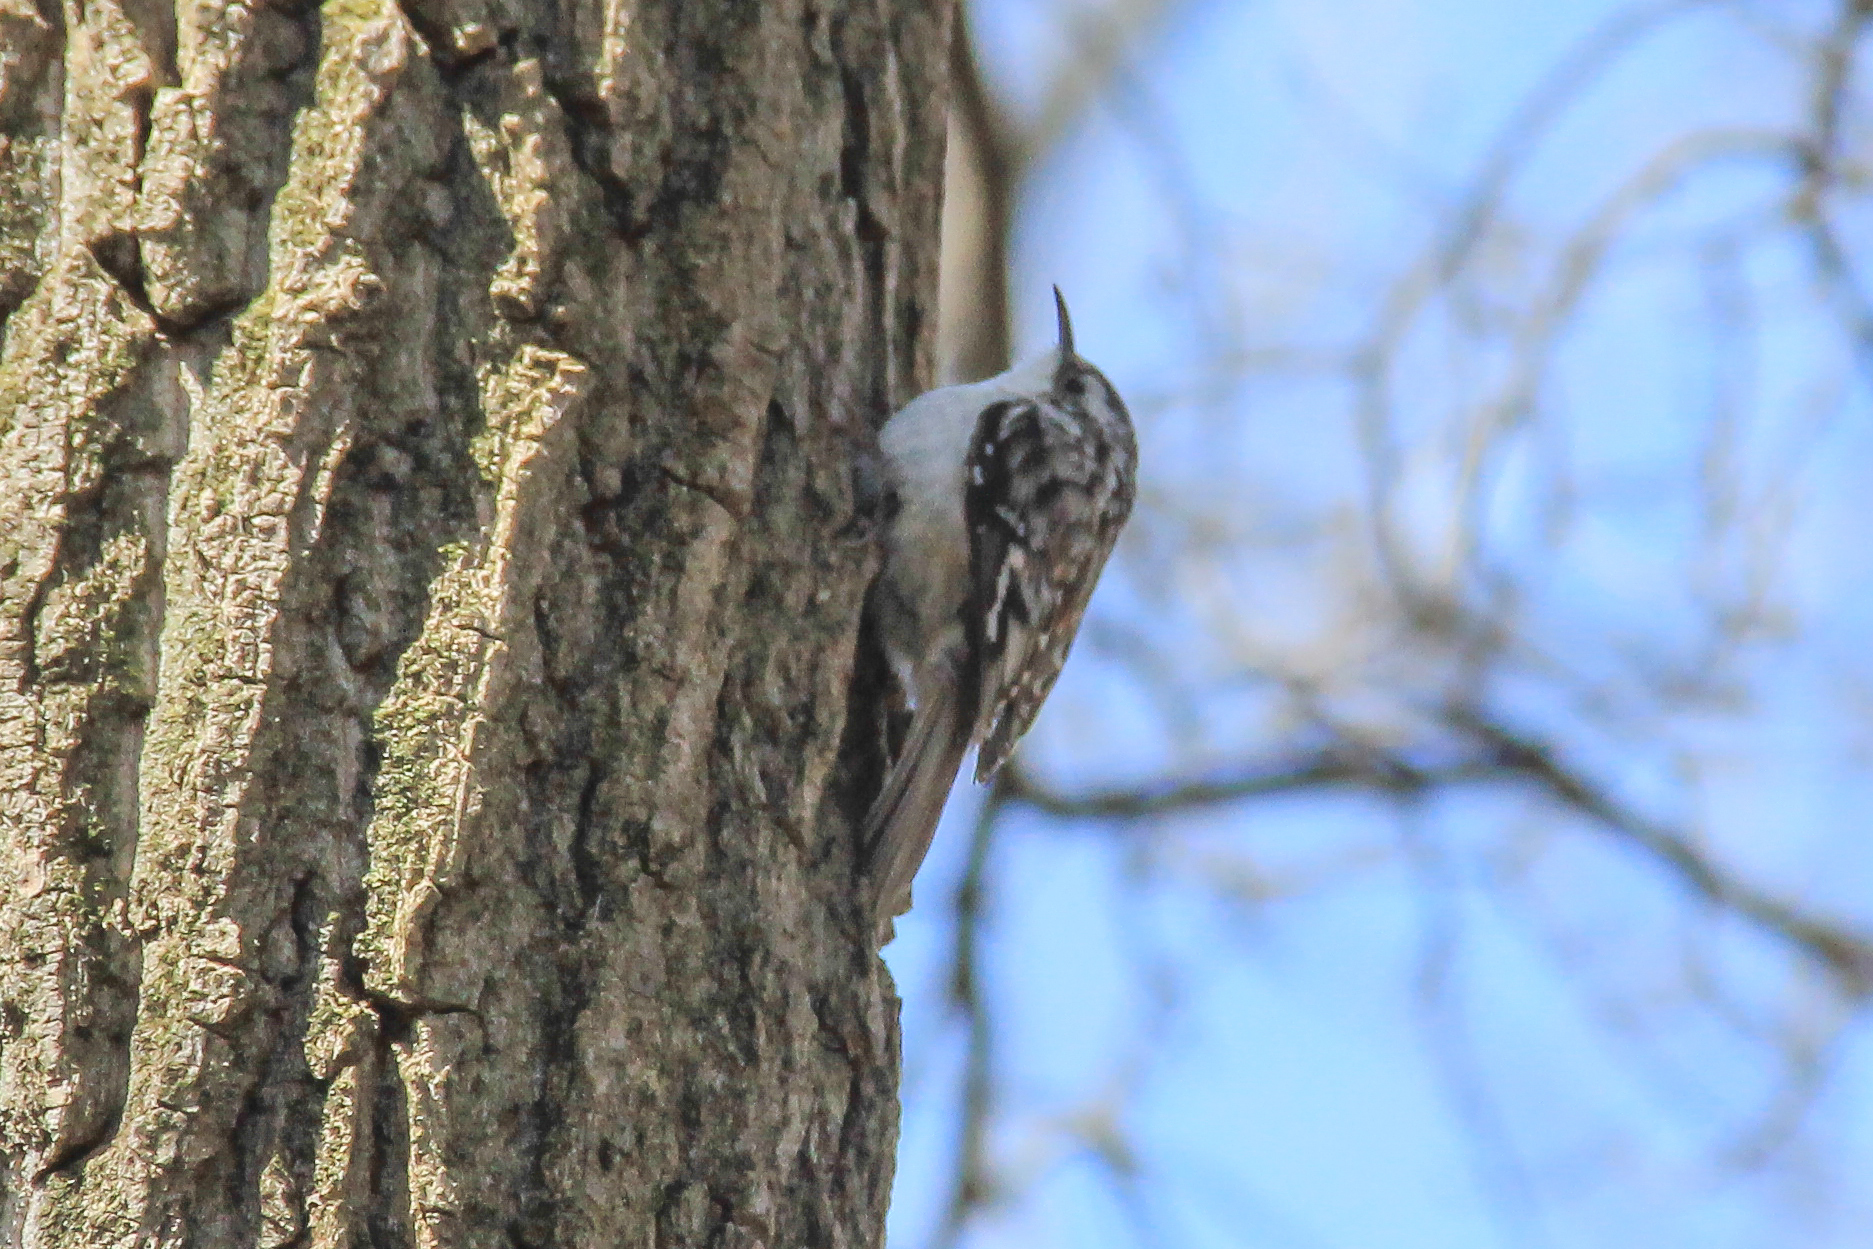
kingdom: Animalia
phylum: Chordata
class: Aves
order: Passeriformes
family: Certhiidae
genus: Certhia
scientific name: Certhia americana
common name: Brown creeper
